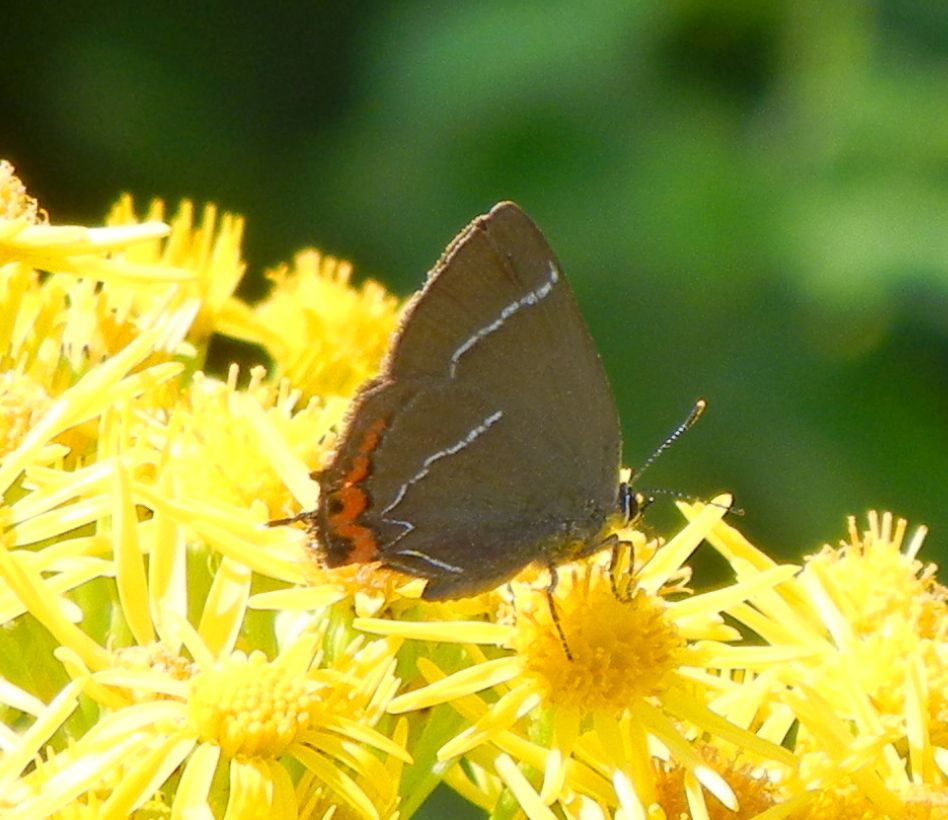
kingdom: Animalia
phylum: Arthropoda
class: Insecta
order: Lepidoptera
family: Lycaenidae
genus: Satyrium
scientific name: Satyrium w-album
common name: White-letter hairstreak
